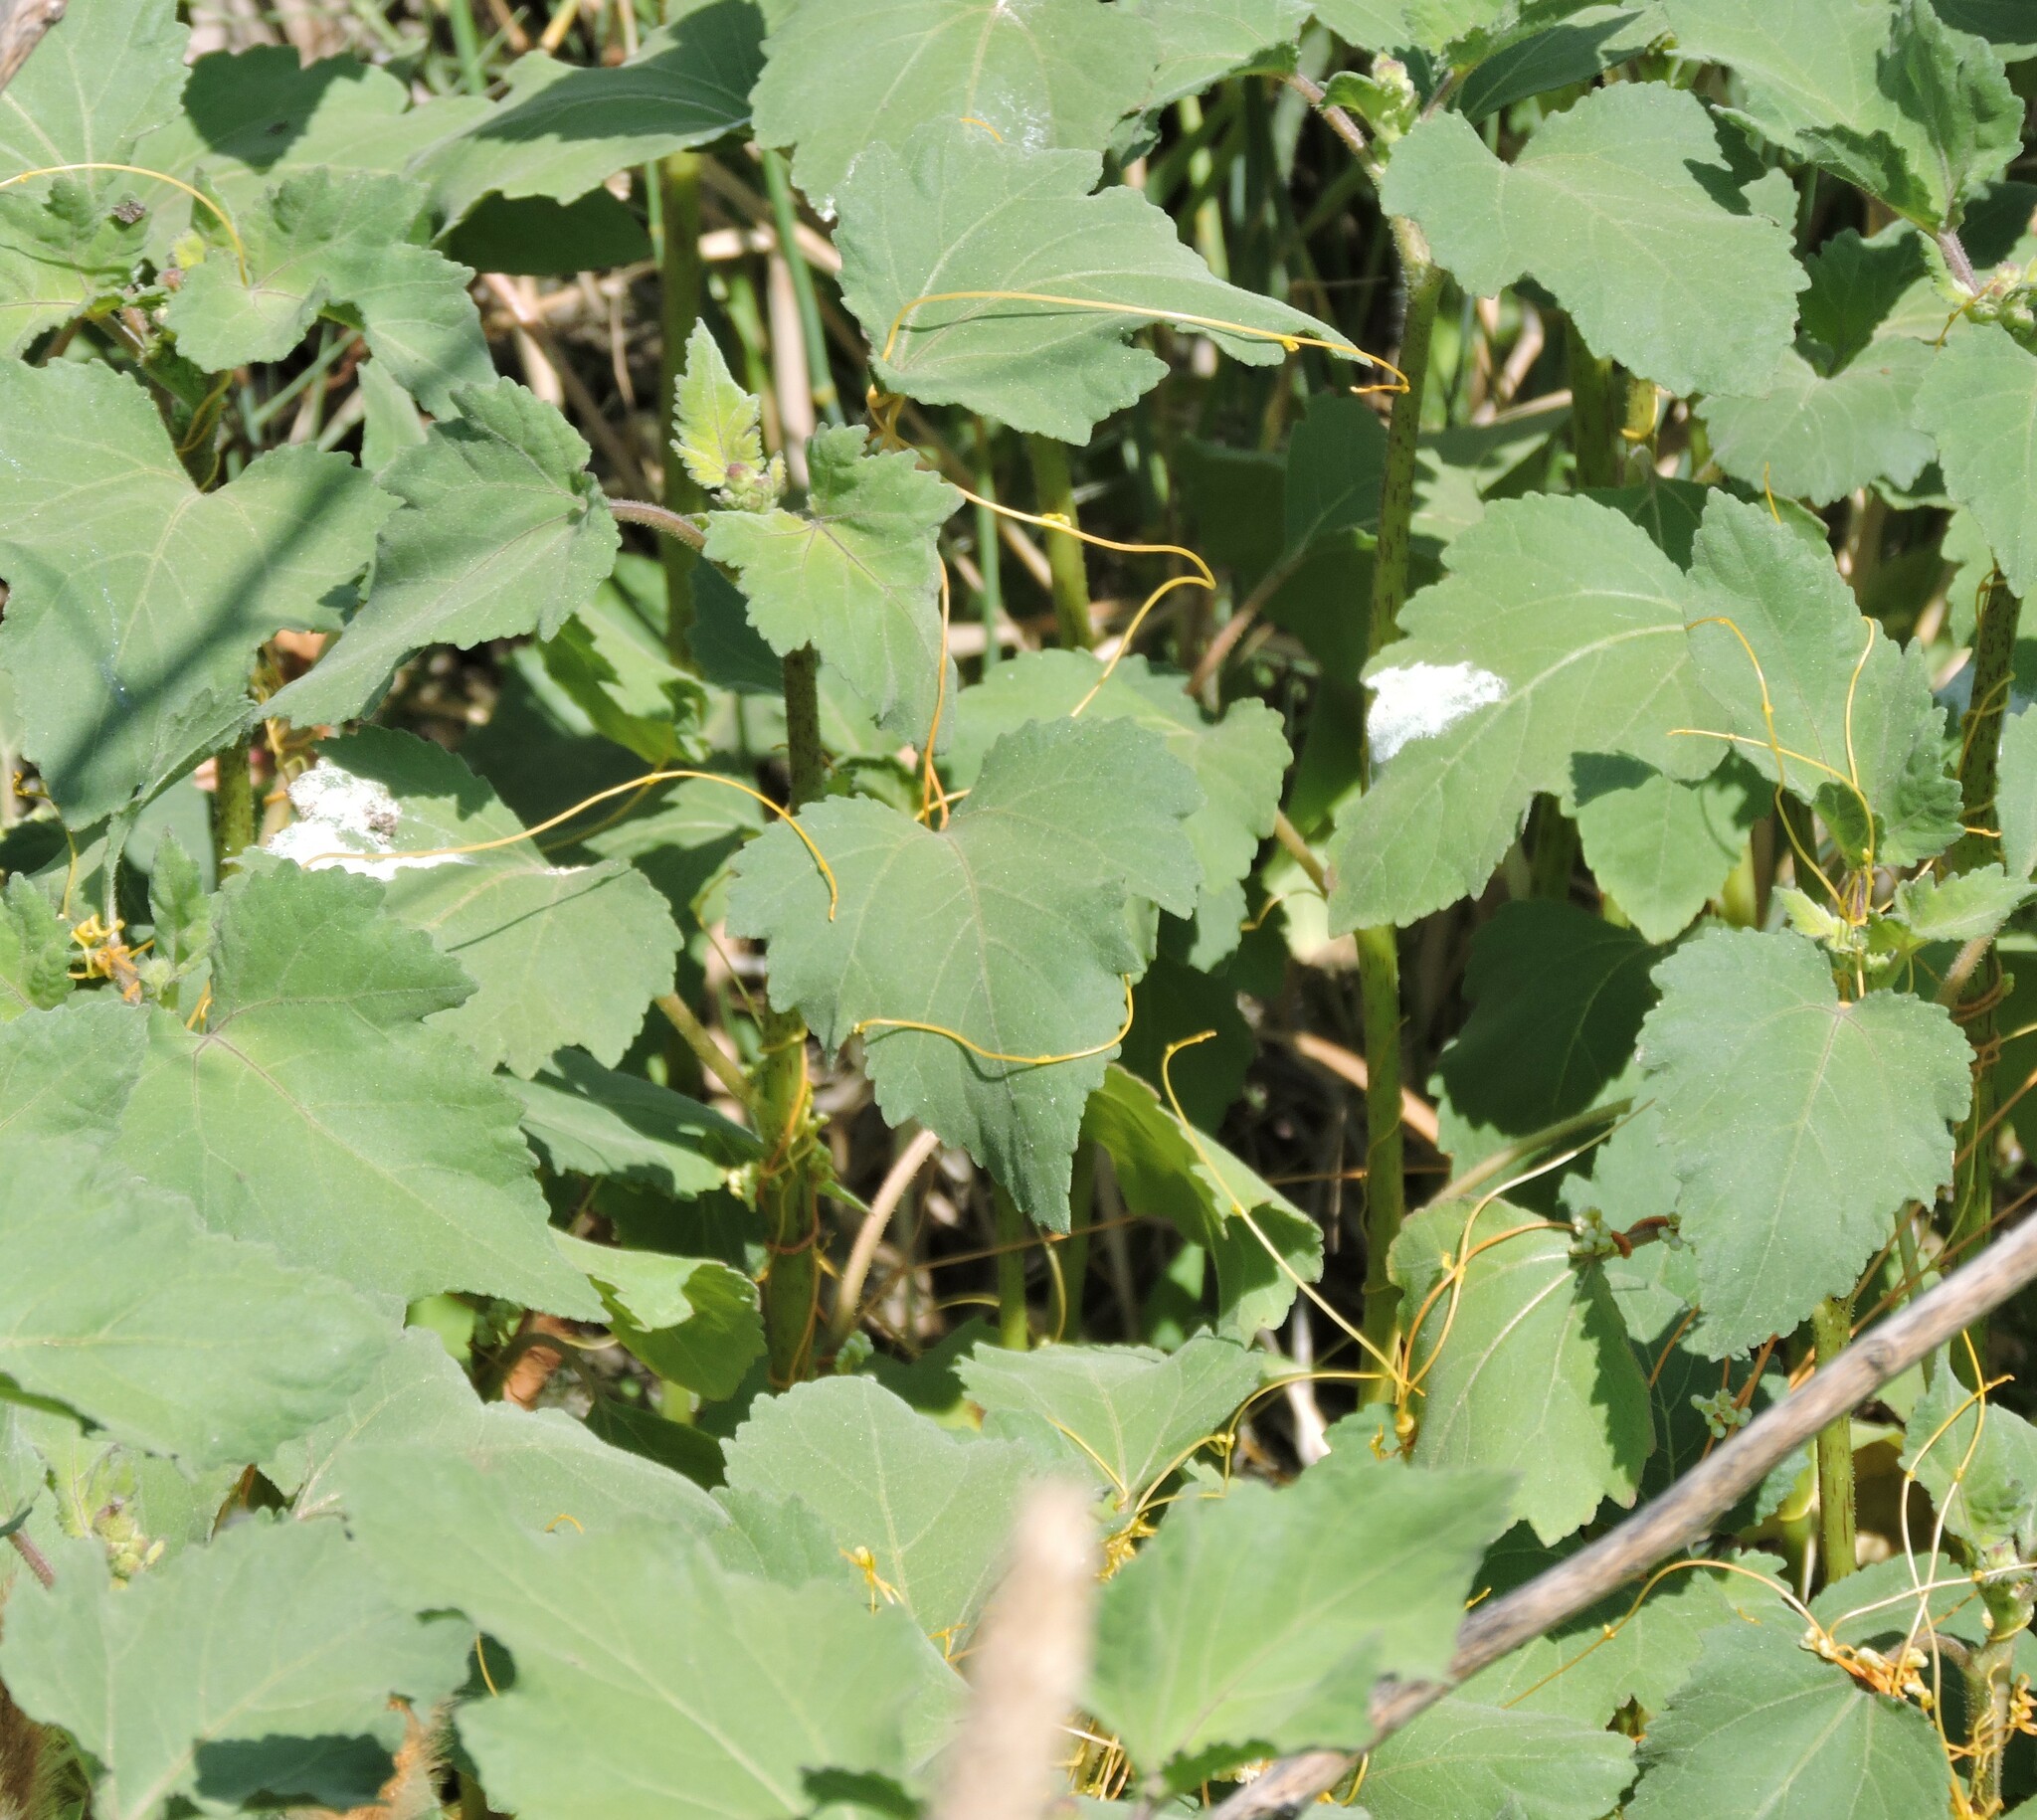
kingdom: Plantae
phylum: Tracheophyta
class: Magnoliopsida
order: Asterales
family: Asteraceae
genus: Xanthium
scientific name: Xanthium strumarium
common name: Rough cocklebur
